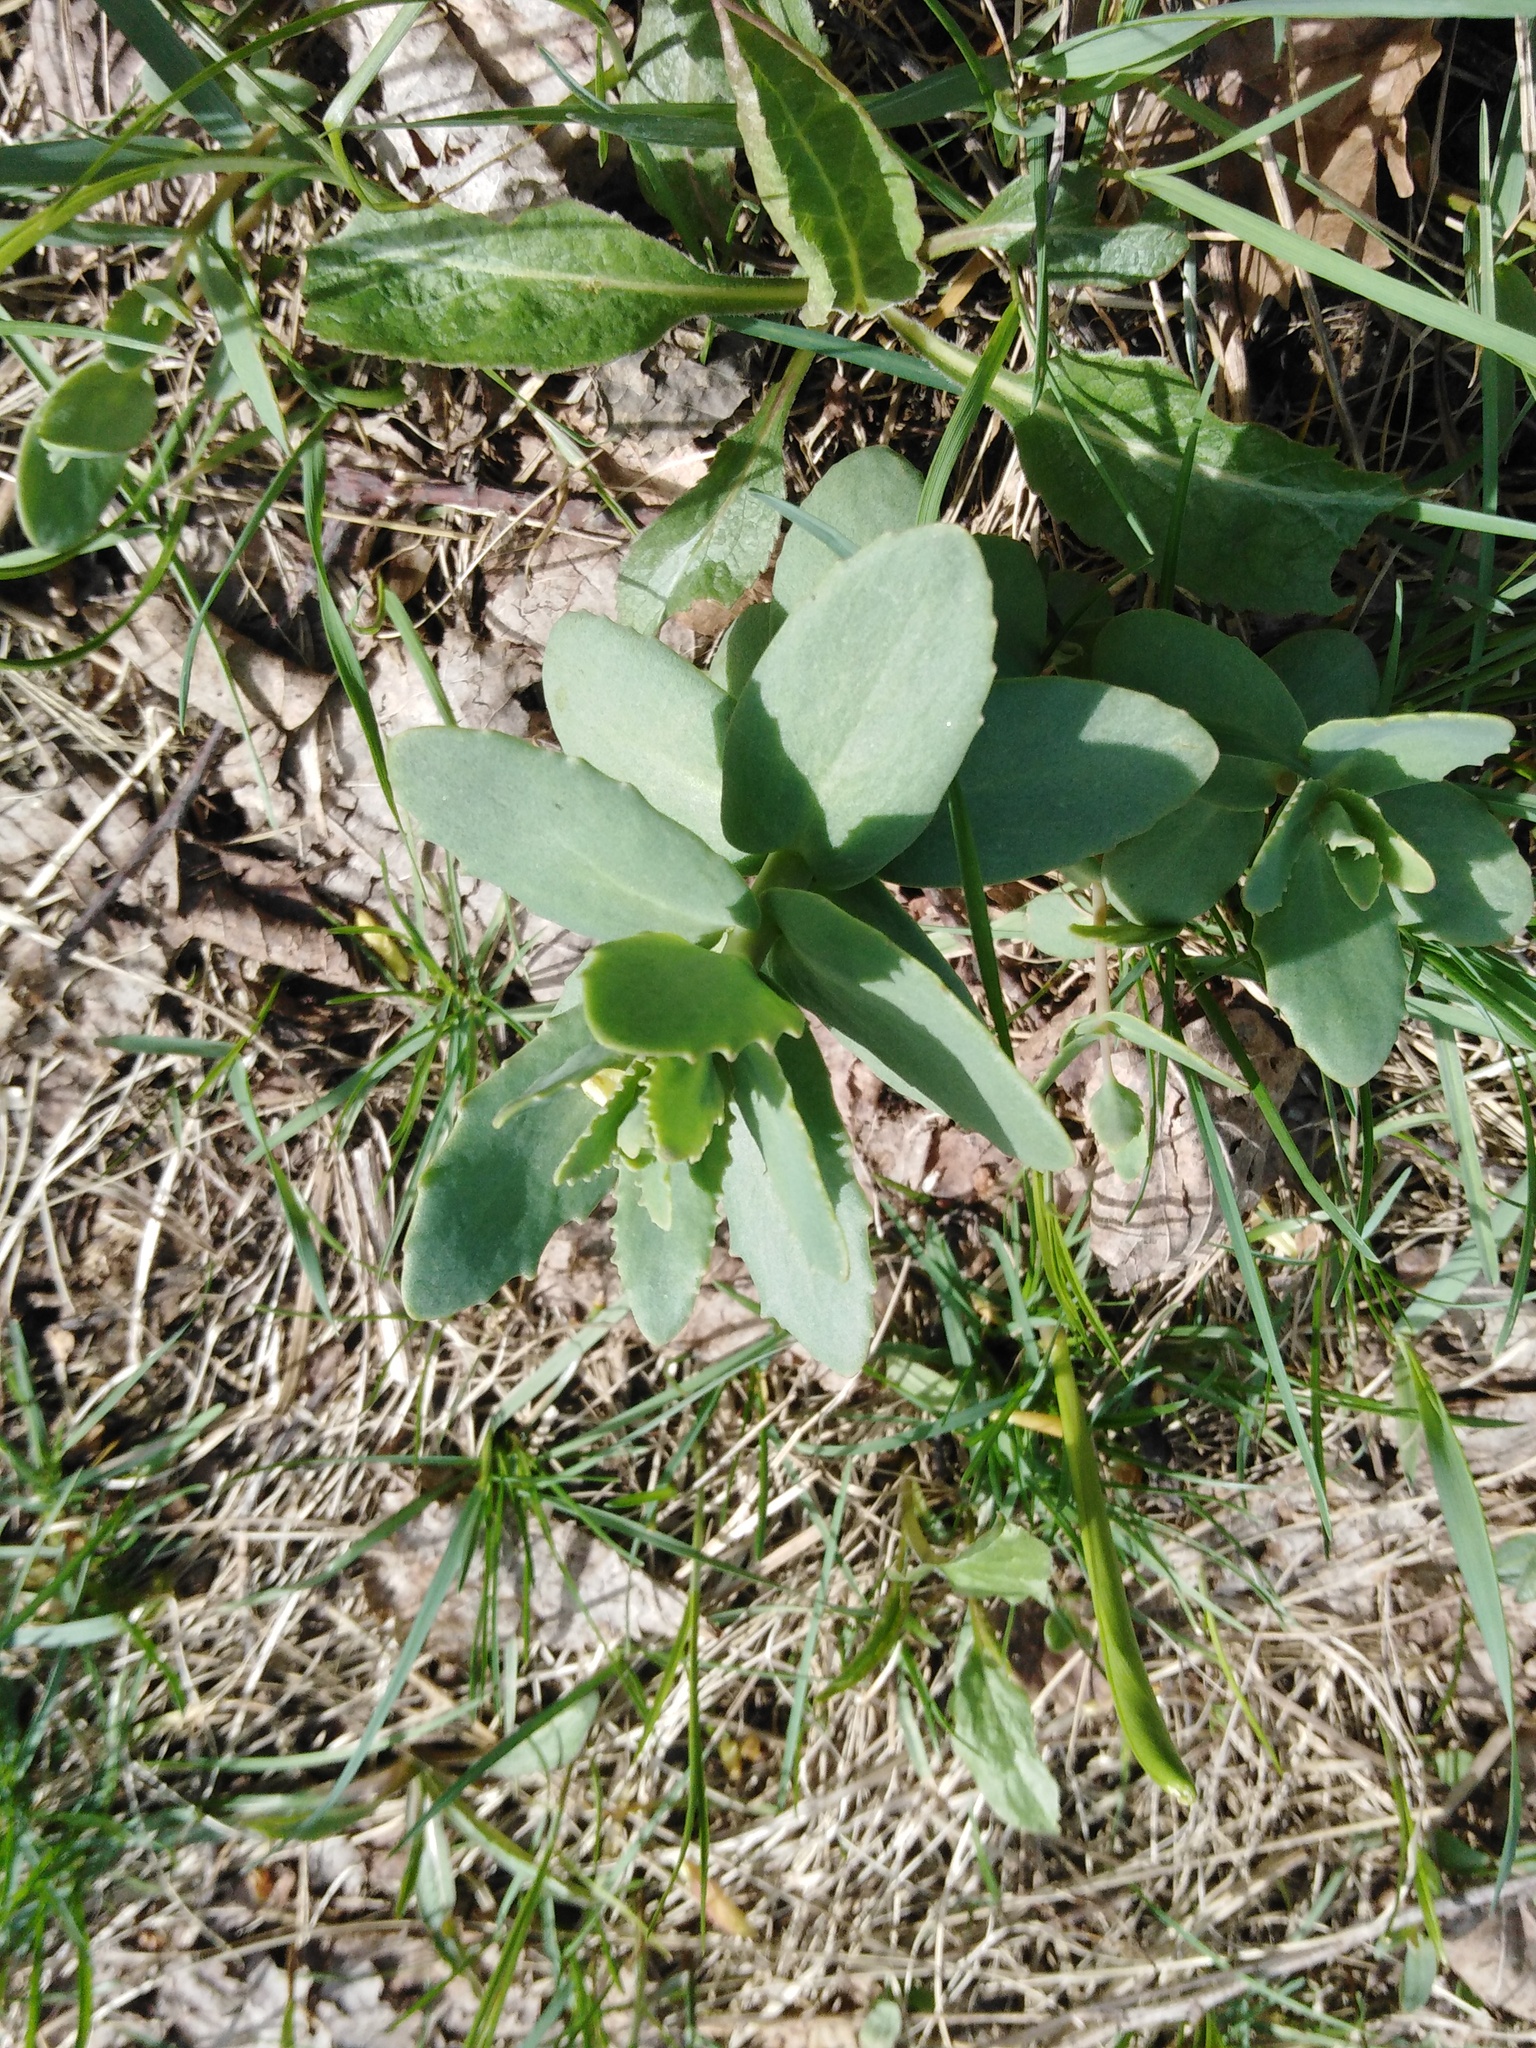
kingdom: Plantae
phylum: Tracheophyta
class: Magnoliopsida
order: Saxifragales
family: Crassulaceae
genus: Hylotelephium
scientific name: Hylotelephium maximum
